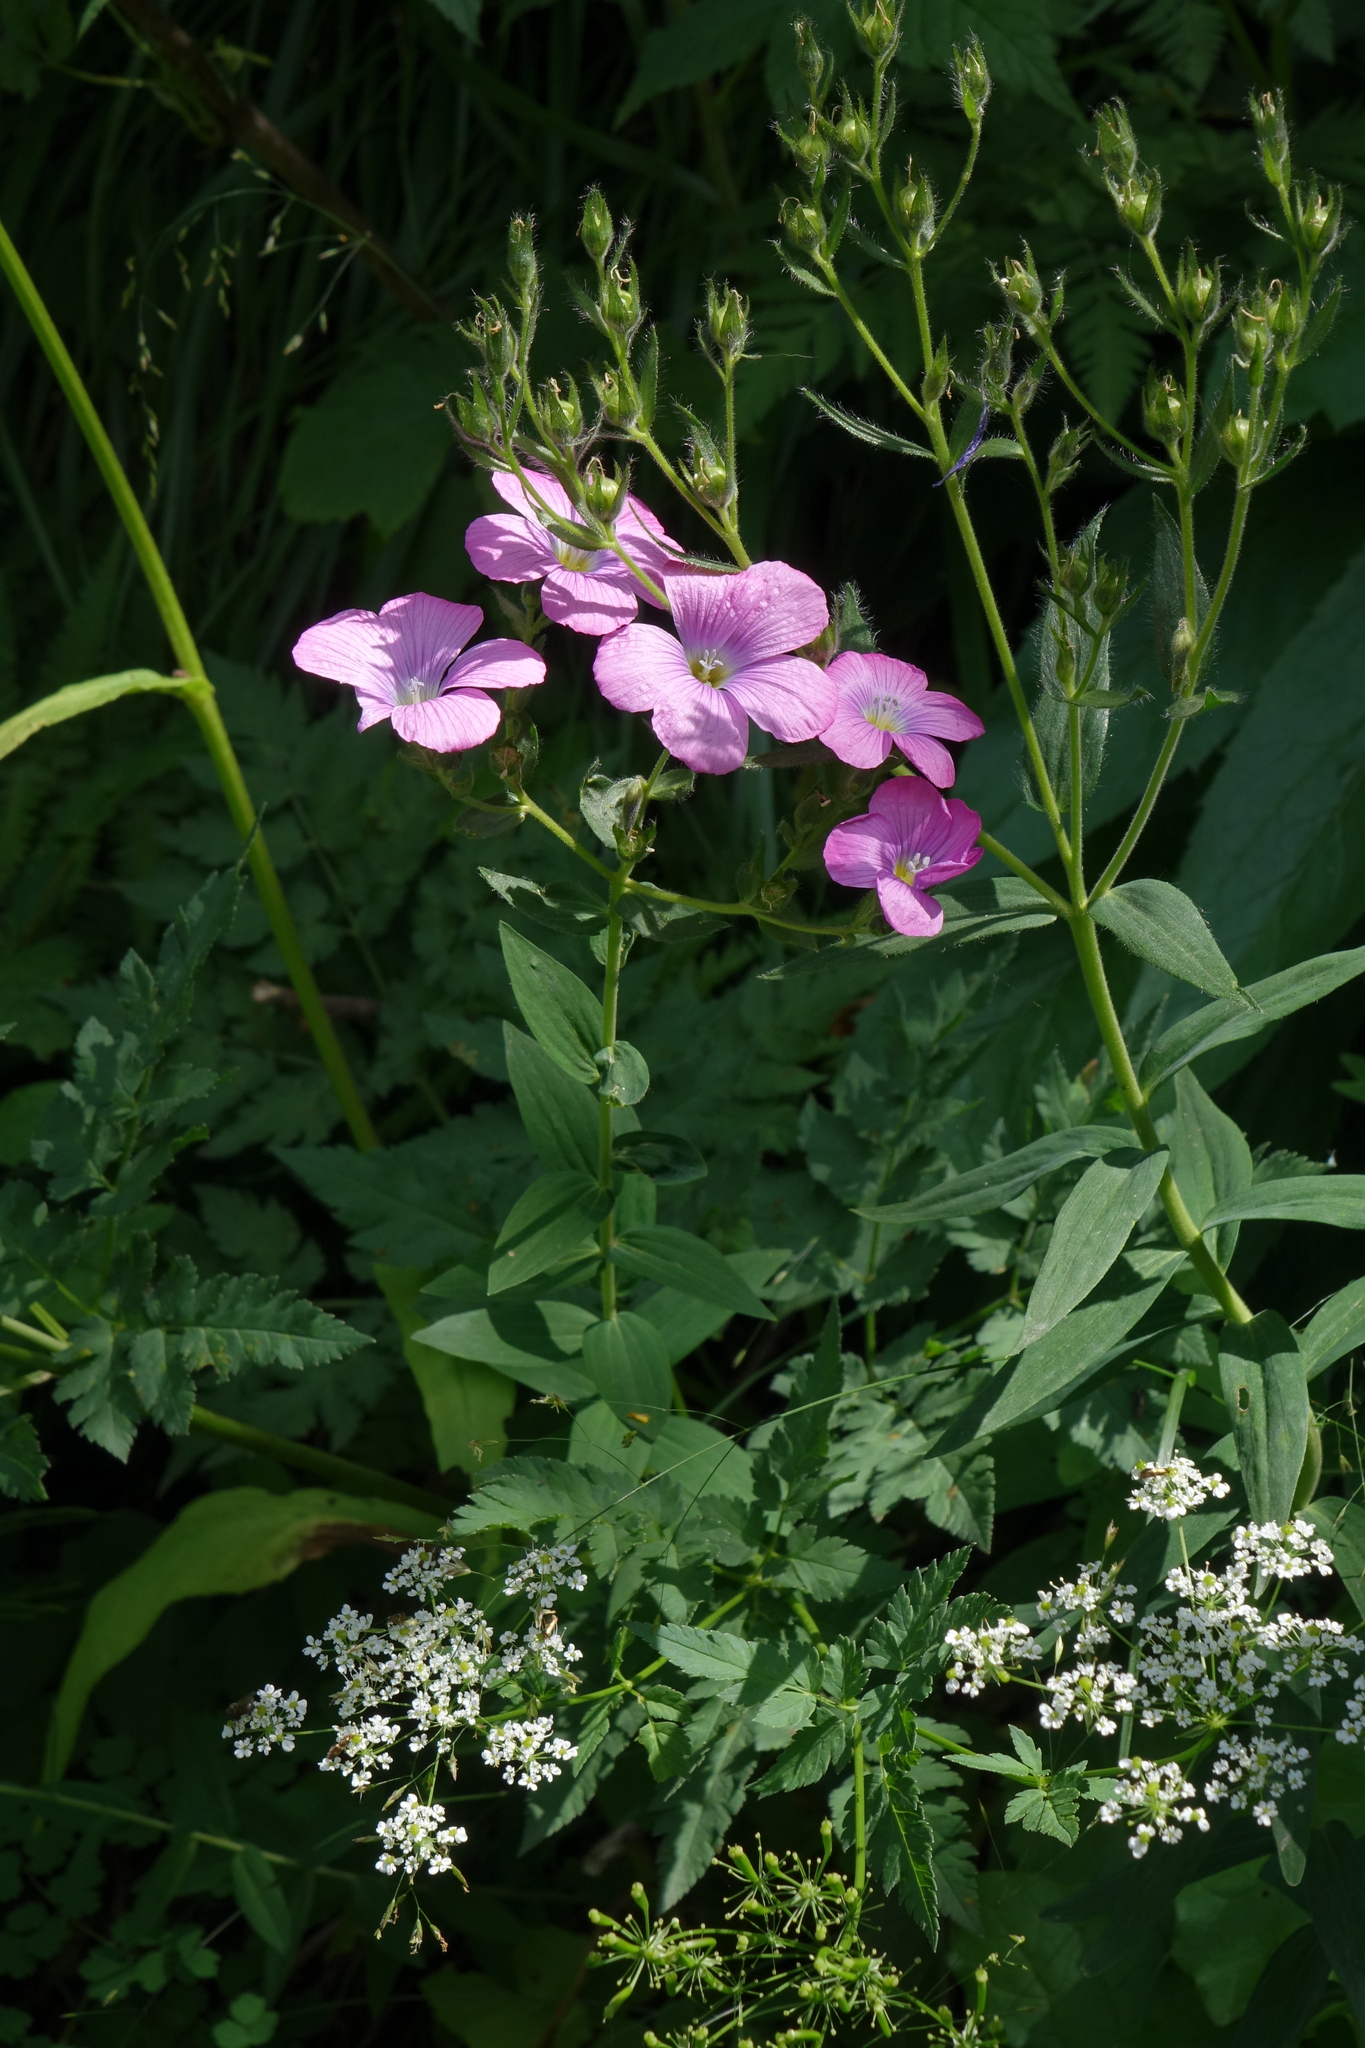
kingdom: Plantae
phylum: Tracheophyta
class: Magnoliopsida
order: Malpighiales
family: Linaceae
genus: Linum
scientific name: Linum hypericifolium
